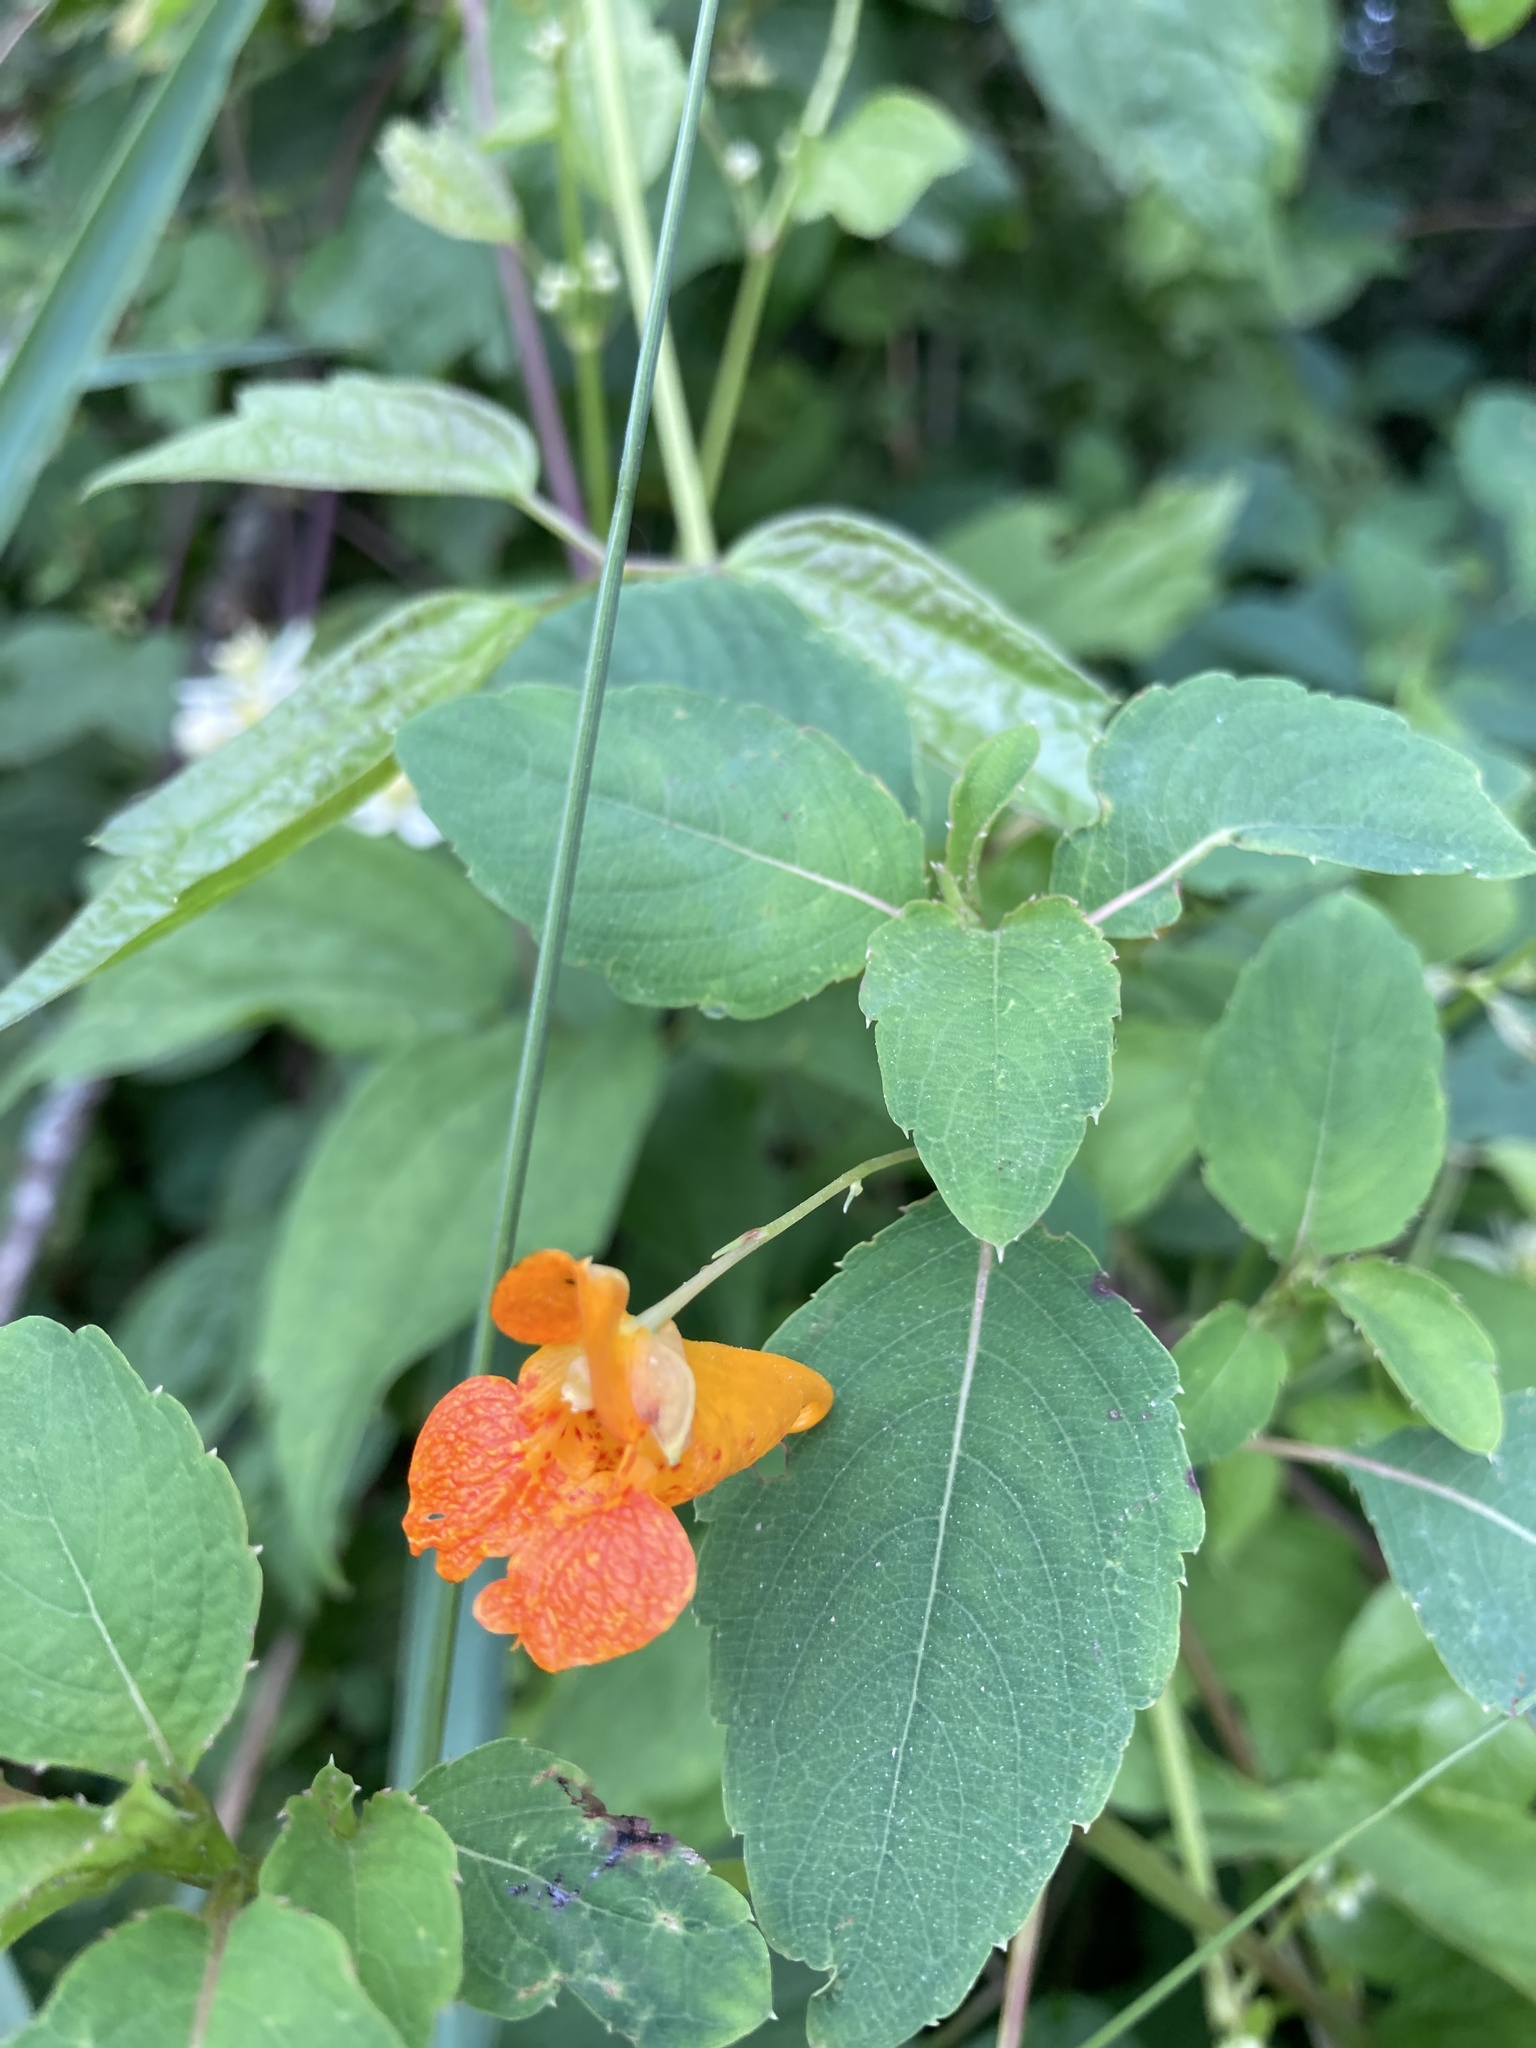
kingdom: Plantae
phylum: Tracheophyta
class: Magnoliopsida
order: Ericales
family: Balsaminaceae
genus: Impatiens
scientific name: Impatiens capensis
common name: Orange balsam
